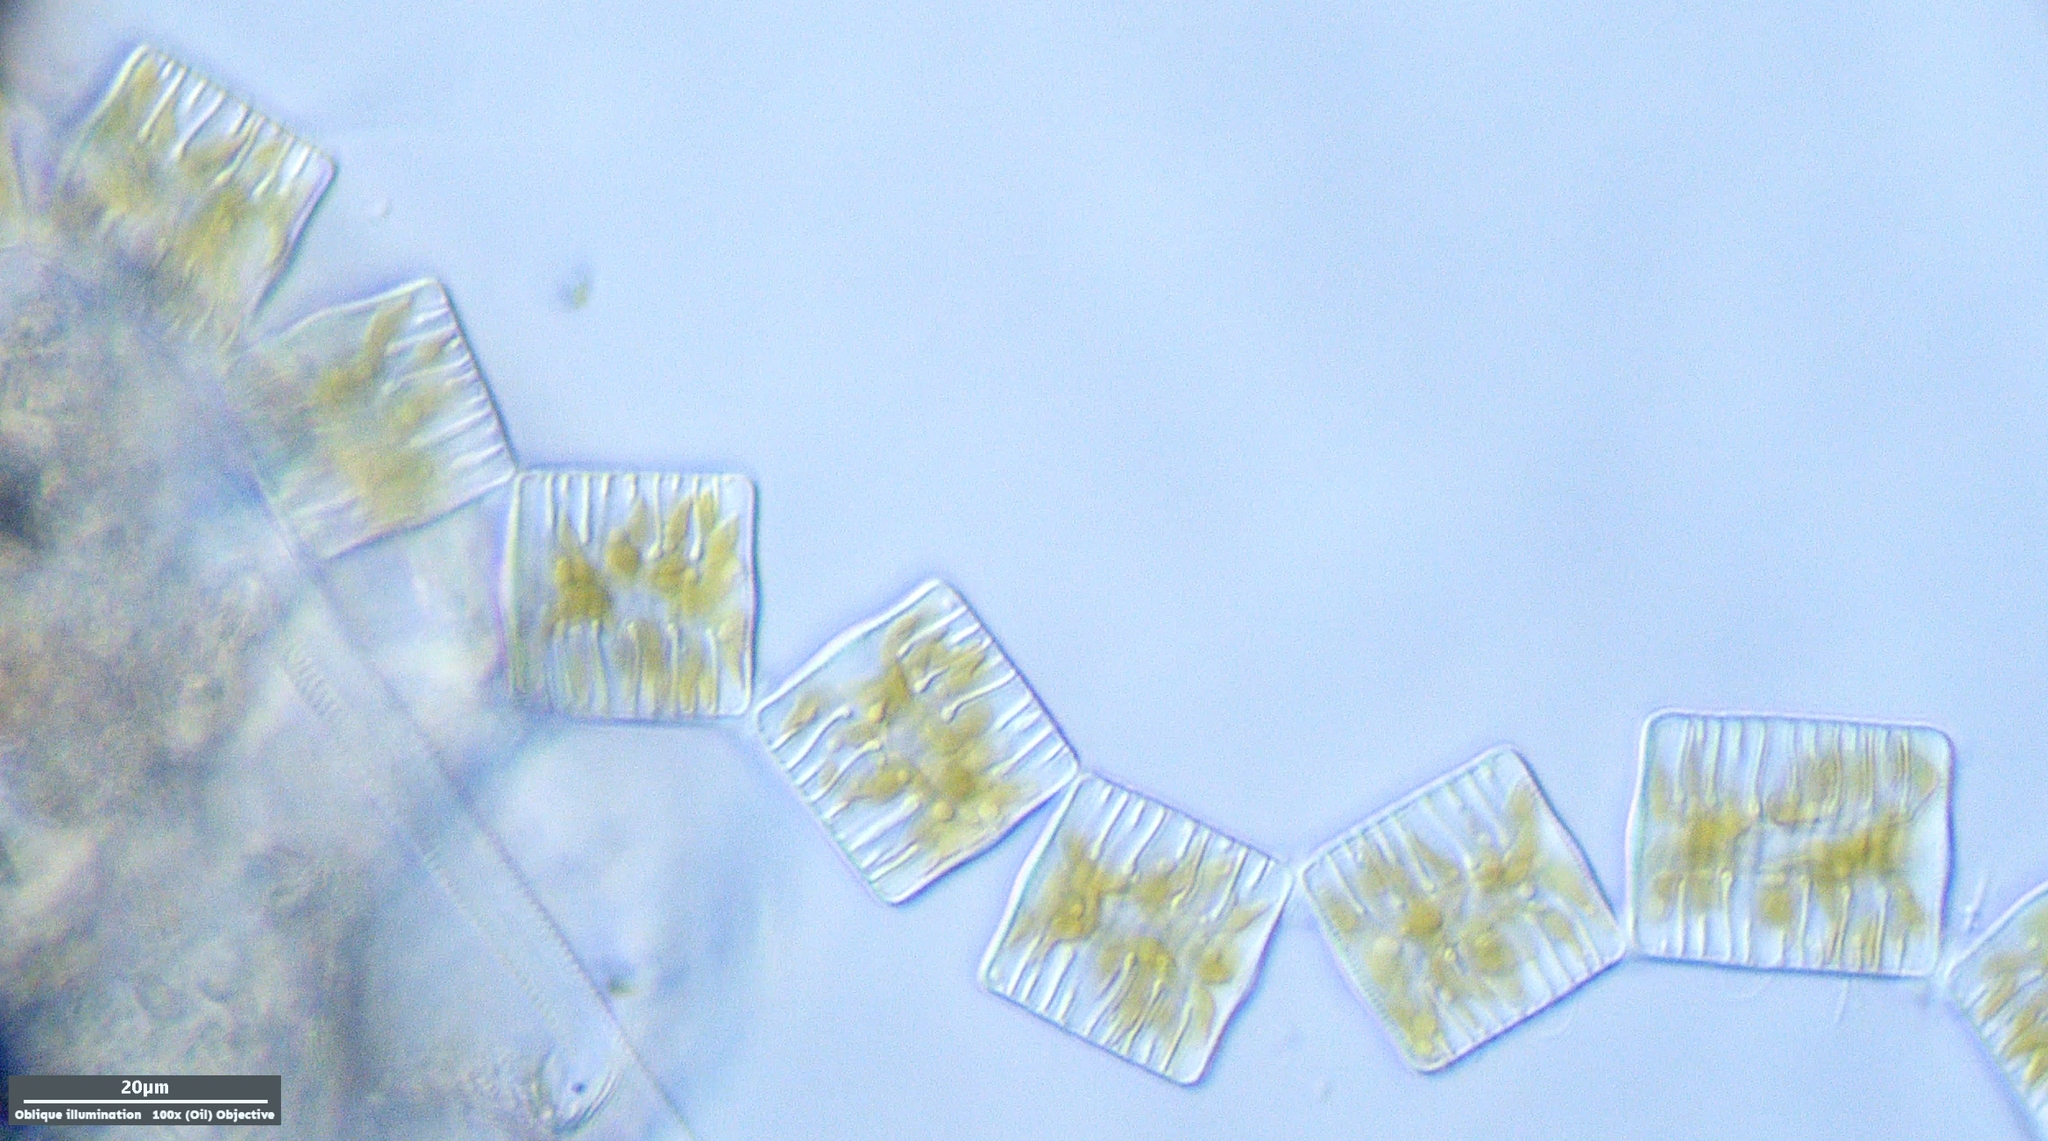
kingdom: Chromista
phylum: Ochrophyta
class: Bacillariophyceae
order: Tabellariales
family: Tabellariaceae
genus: Tabellaria
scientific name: Tabellaria flocculosa
